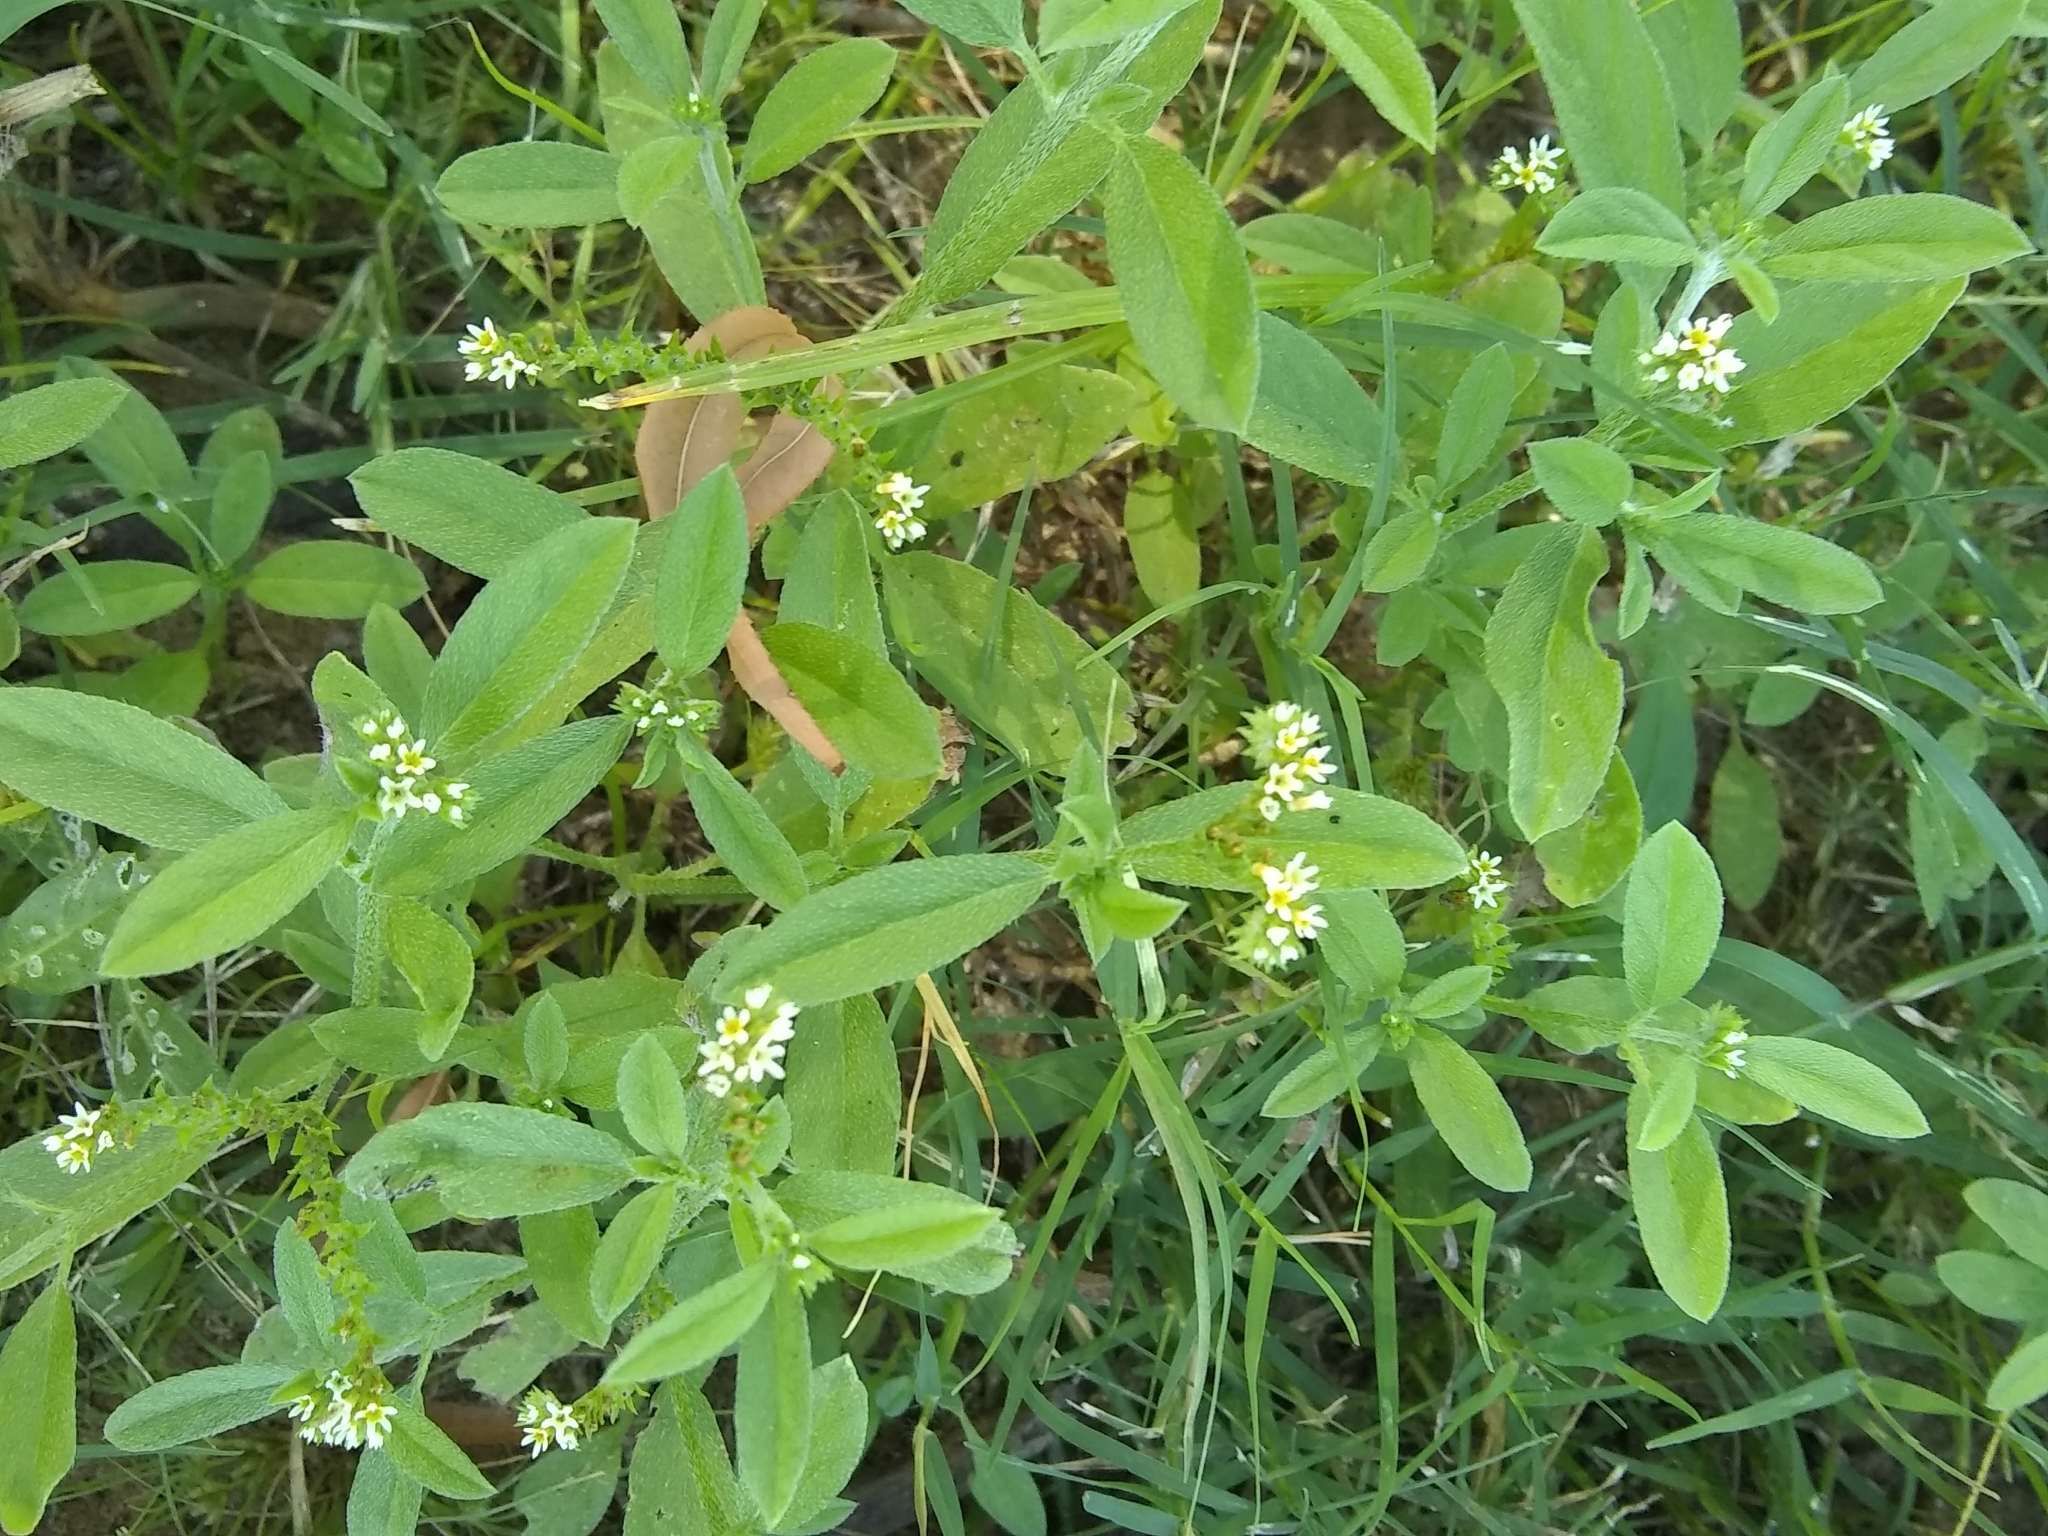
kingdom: Plantae
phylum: Tracheophyta
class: Magnoliopsida
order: Boraginales
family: Heliotropiaceae
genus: Euploca
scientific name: Euploca procumbens
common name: Fourspike heliotrope
